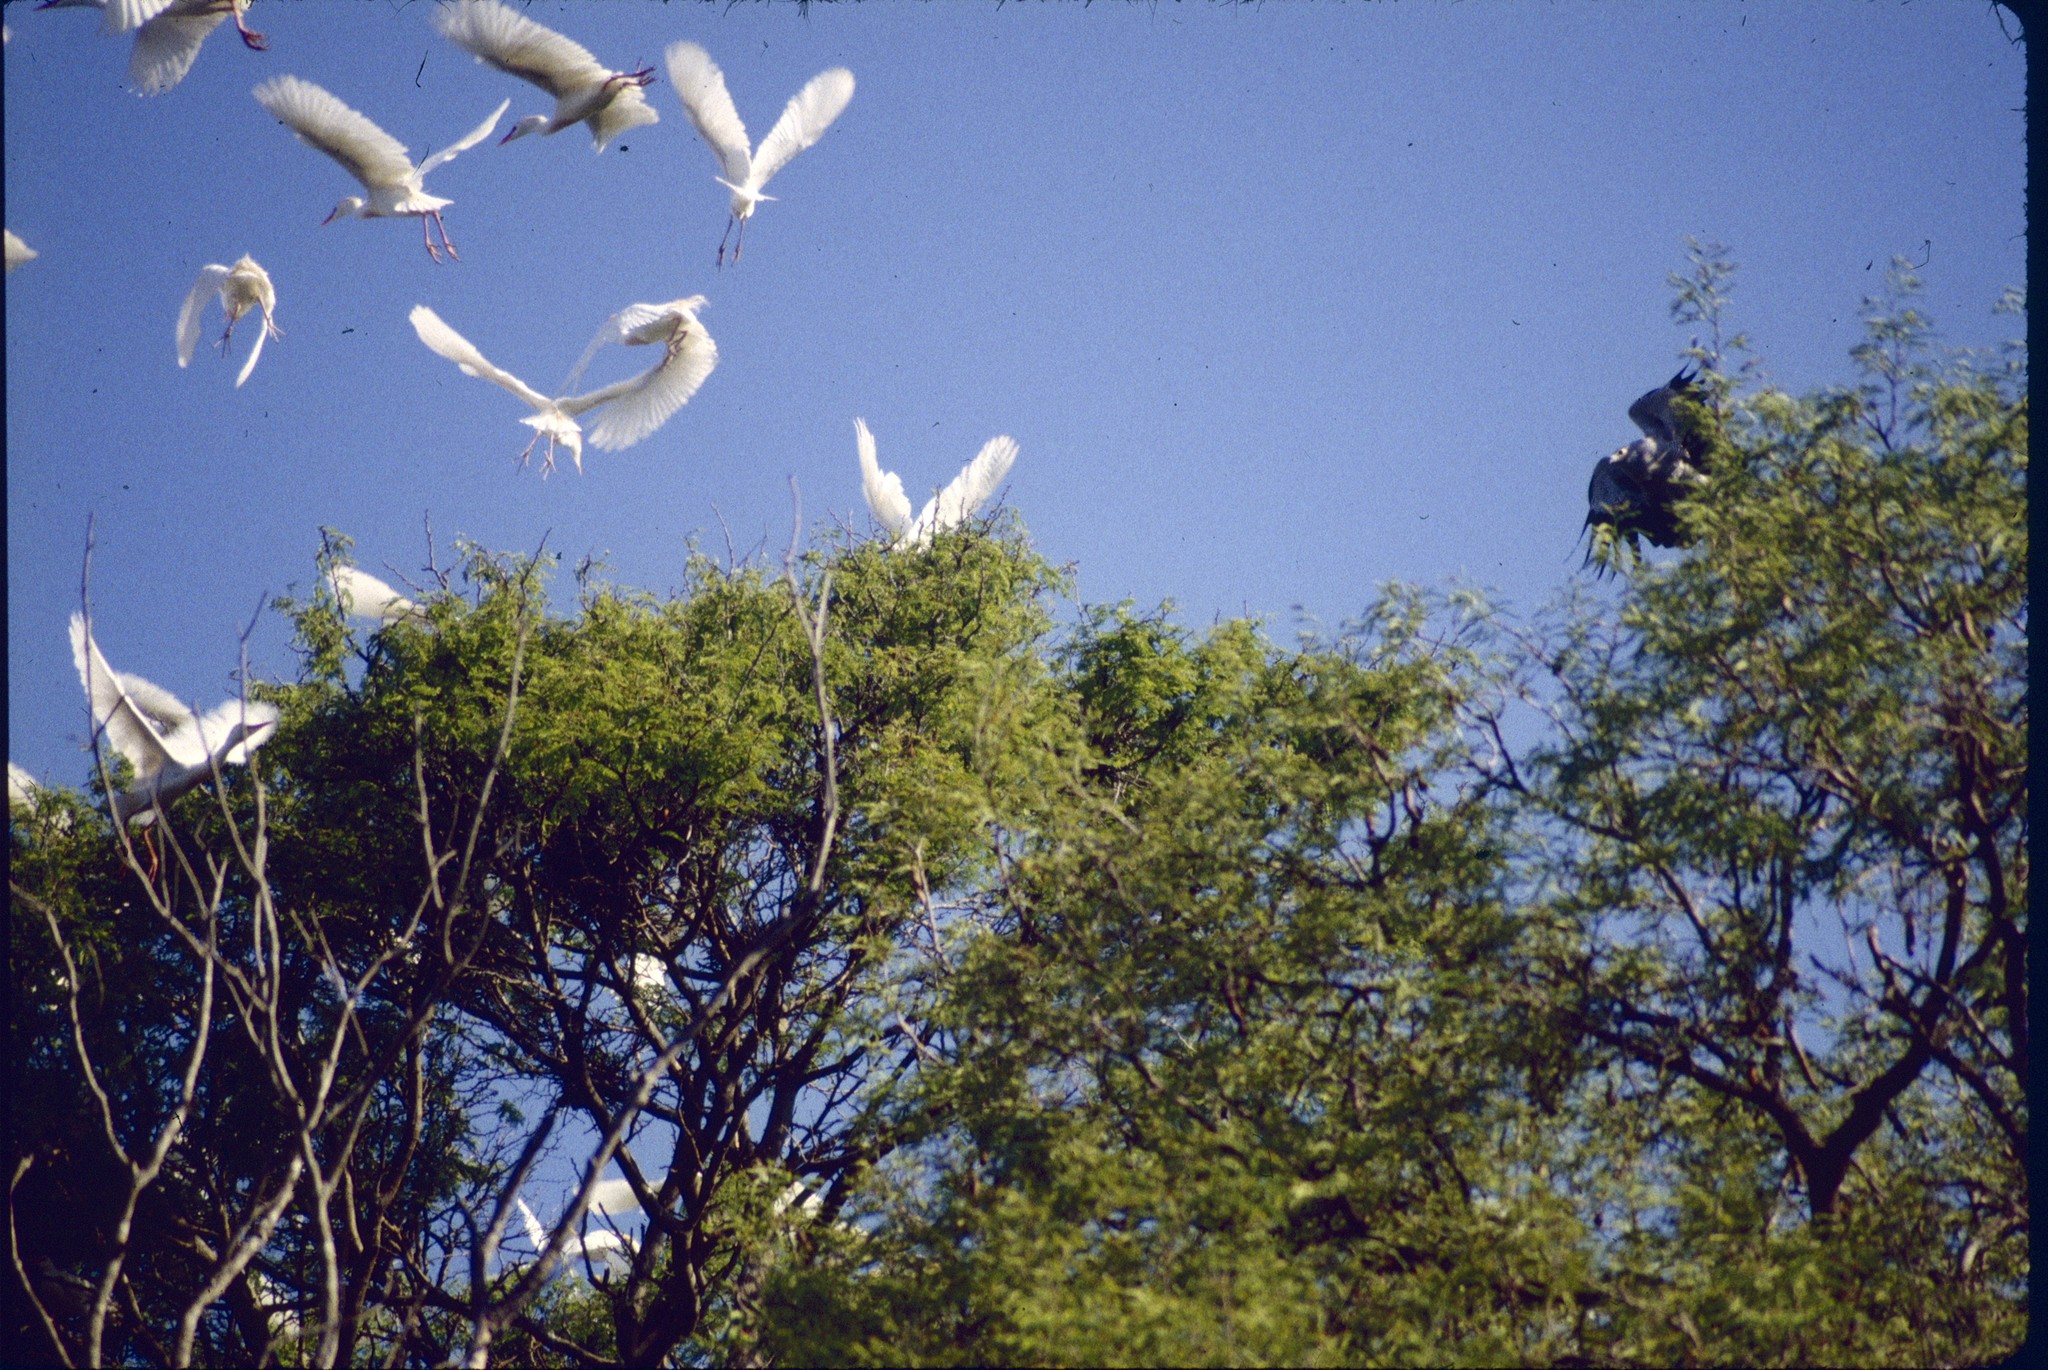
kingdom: Animalia
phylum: Chordata
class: Aves
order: Accipitriformes
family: Accipitridae
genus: Polyboroides
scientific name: Polyboroides radiatus
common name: Madagascar harrier-hawk
